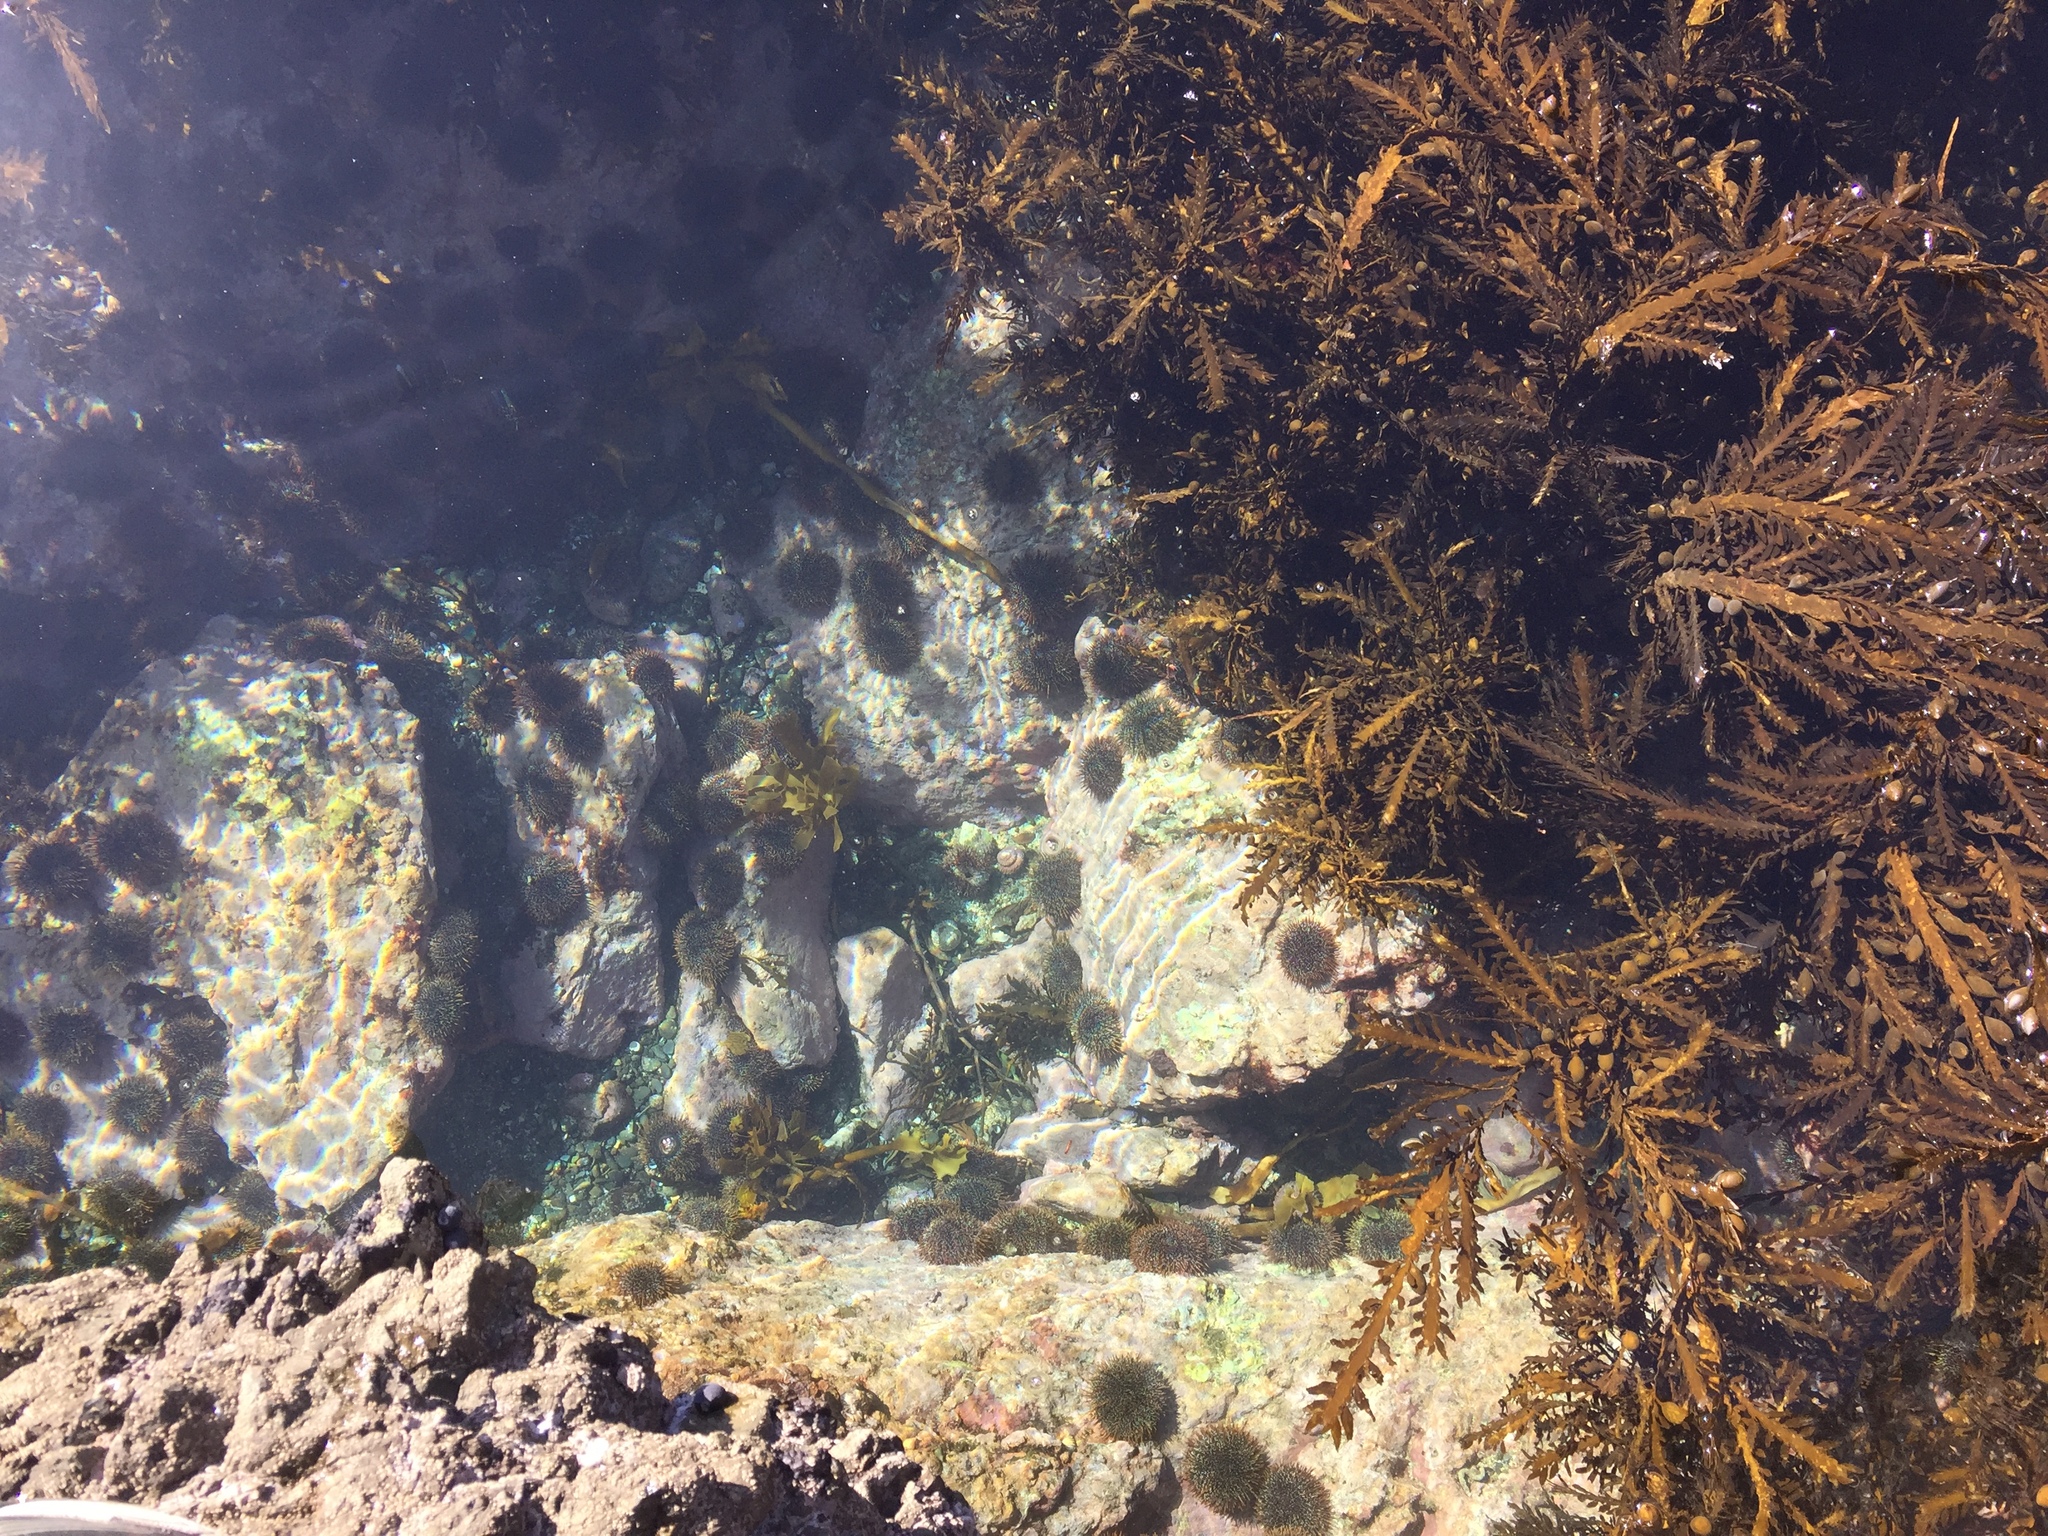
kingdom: Animalia
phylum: Echinodermata
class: Echinoidea
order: Camarodonta
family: Echinometridae
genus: Evechinus
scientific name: Evechinus chloroticus
